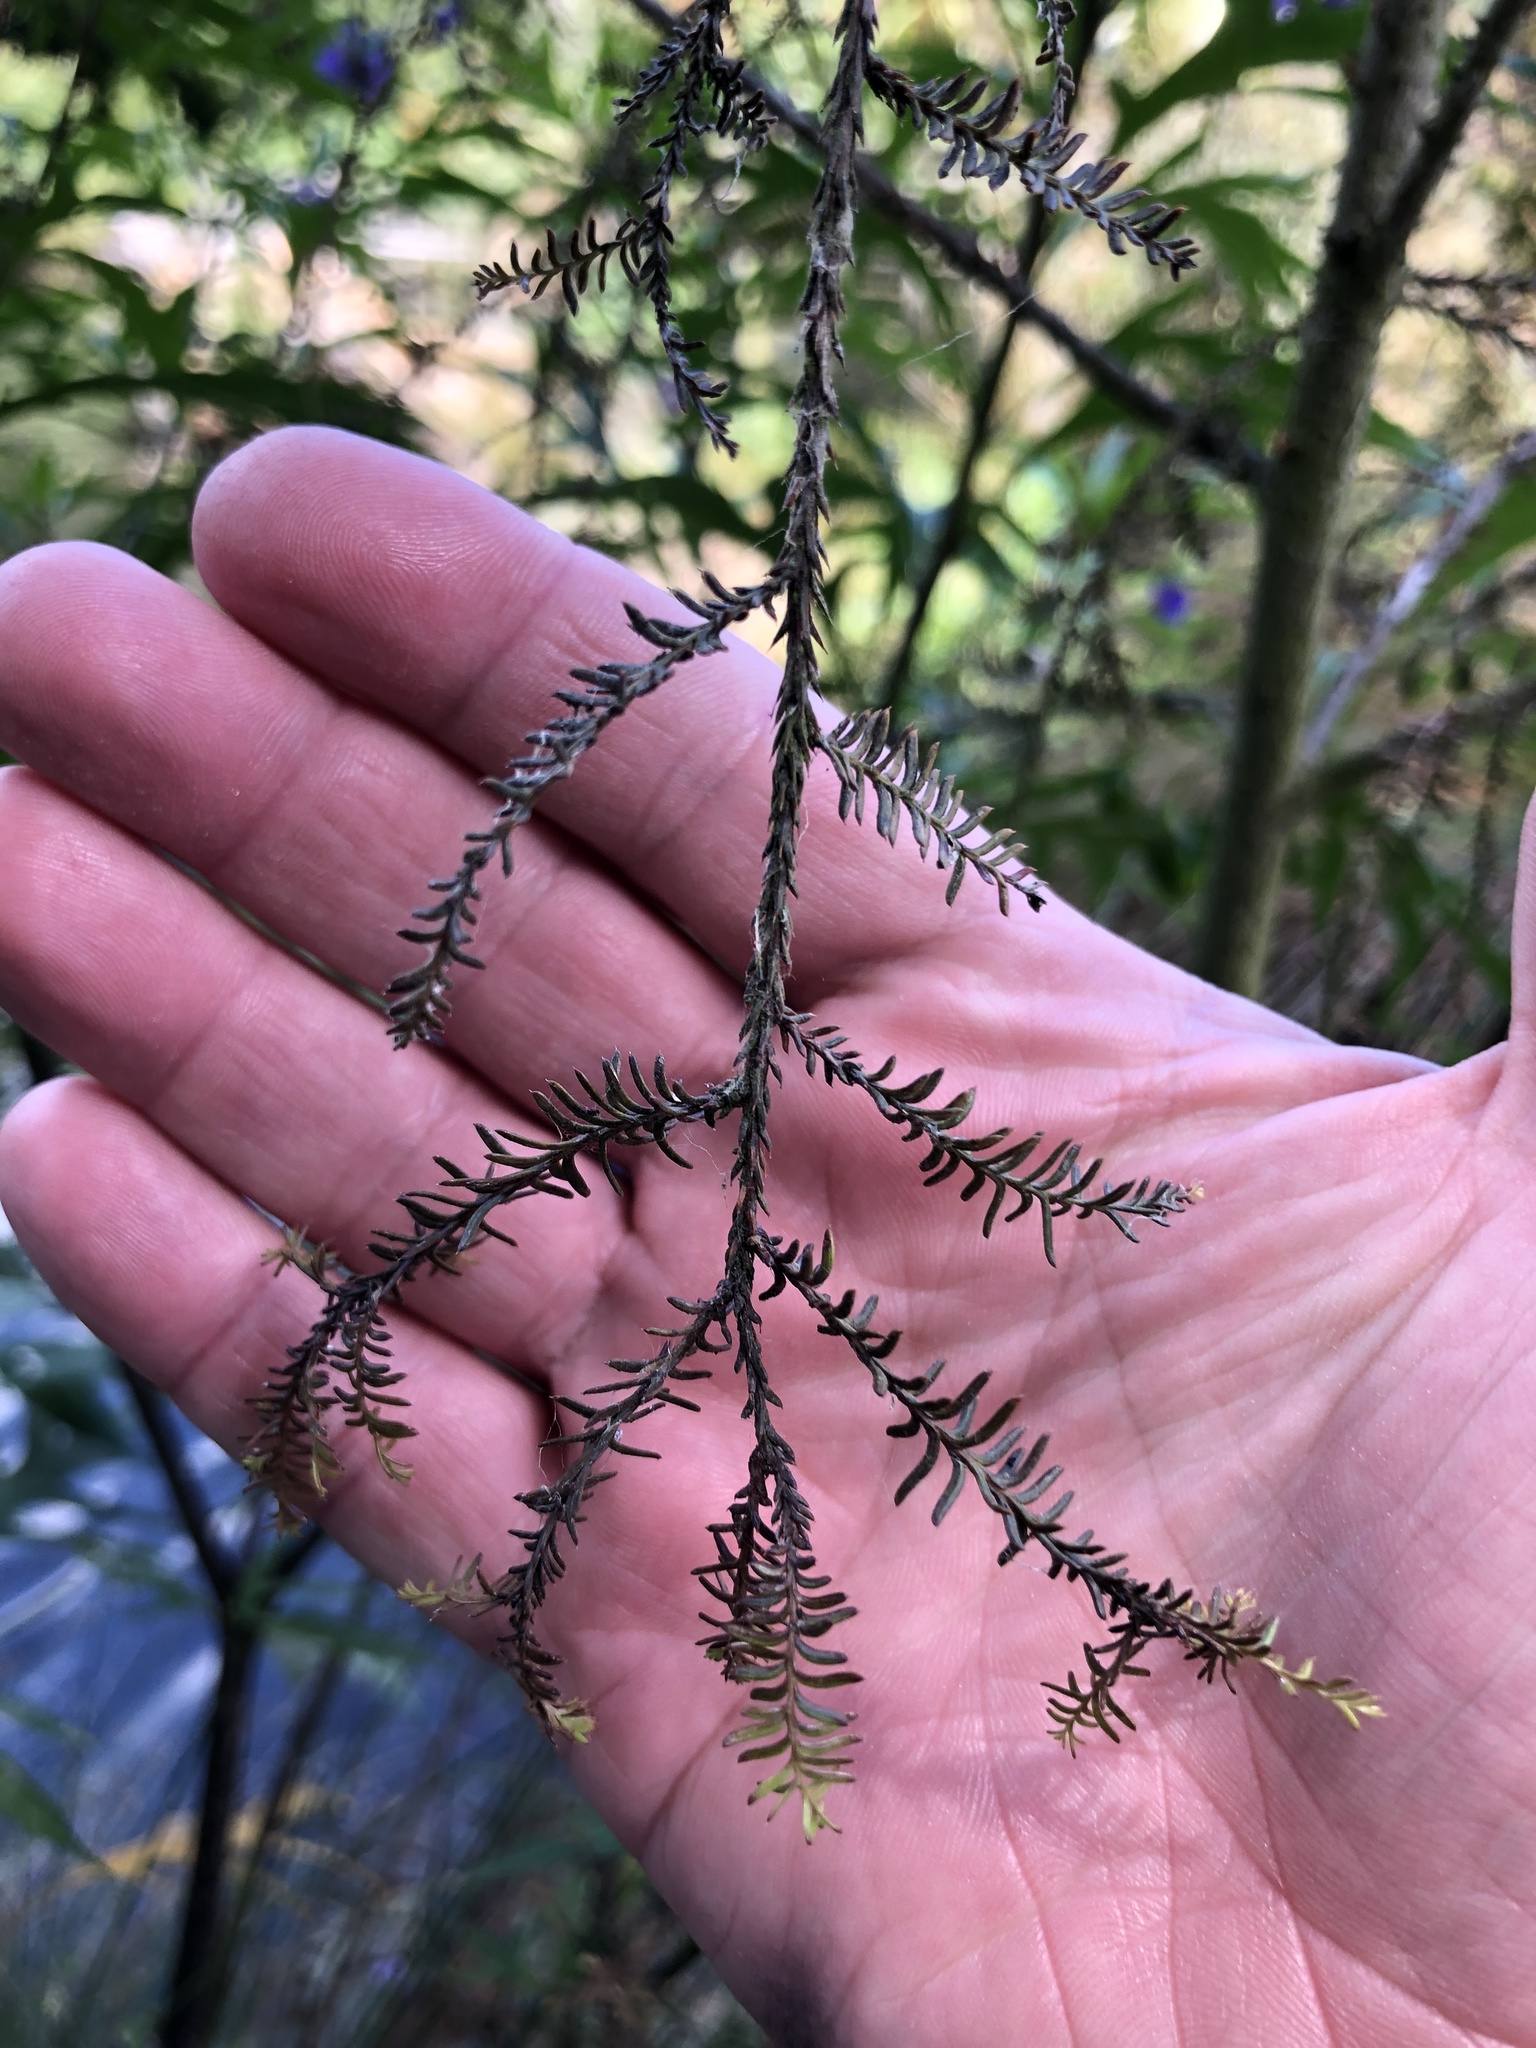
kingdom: Plantae
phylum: Tracheophyta
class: Pinopsida
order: Pinales
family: Podocarpaceae
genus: Dacrycarpus
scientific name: Dacrycarpus dacrydioides
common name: White pine
